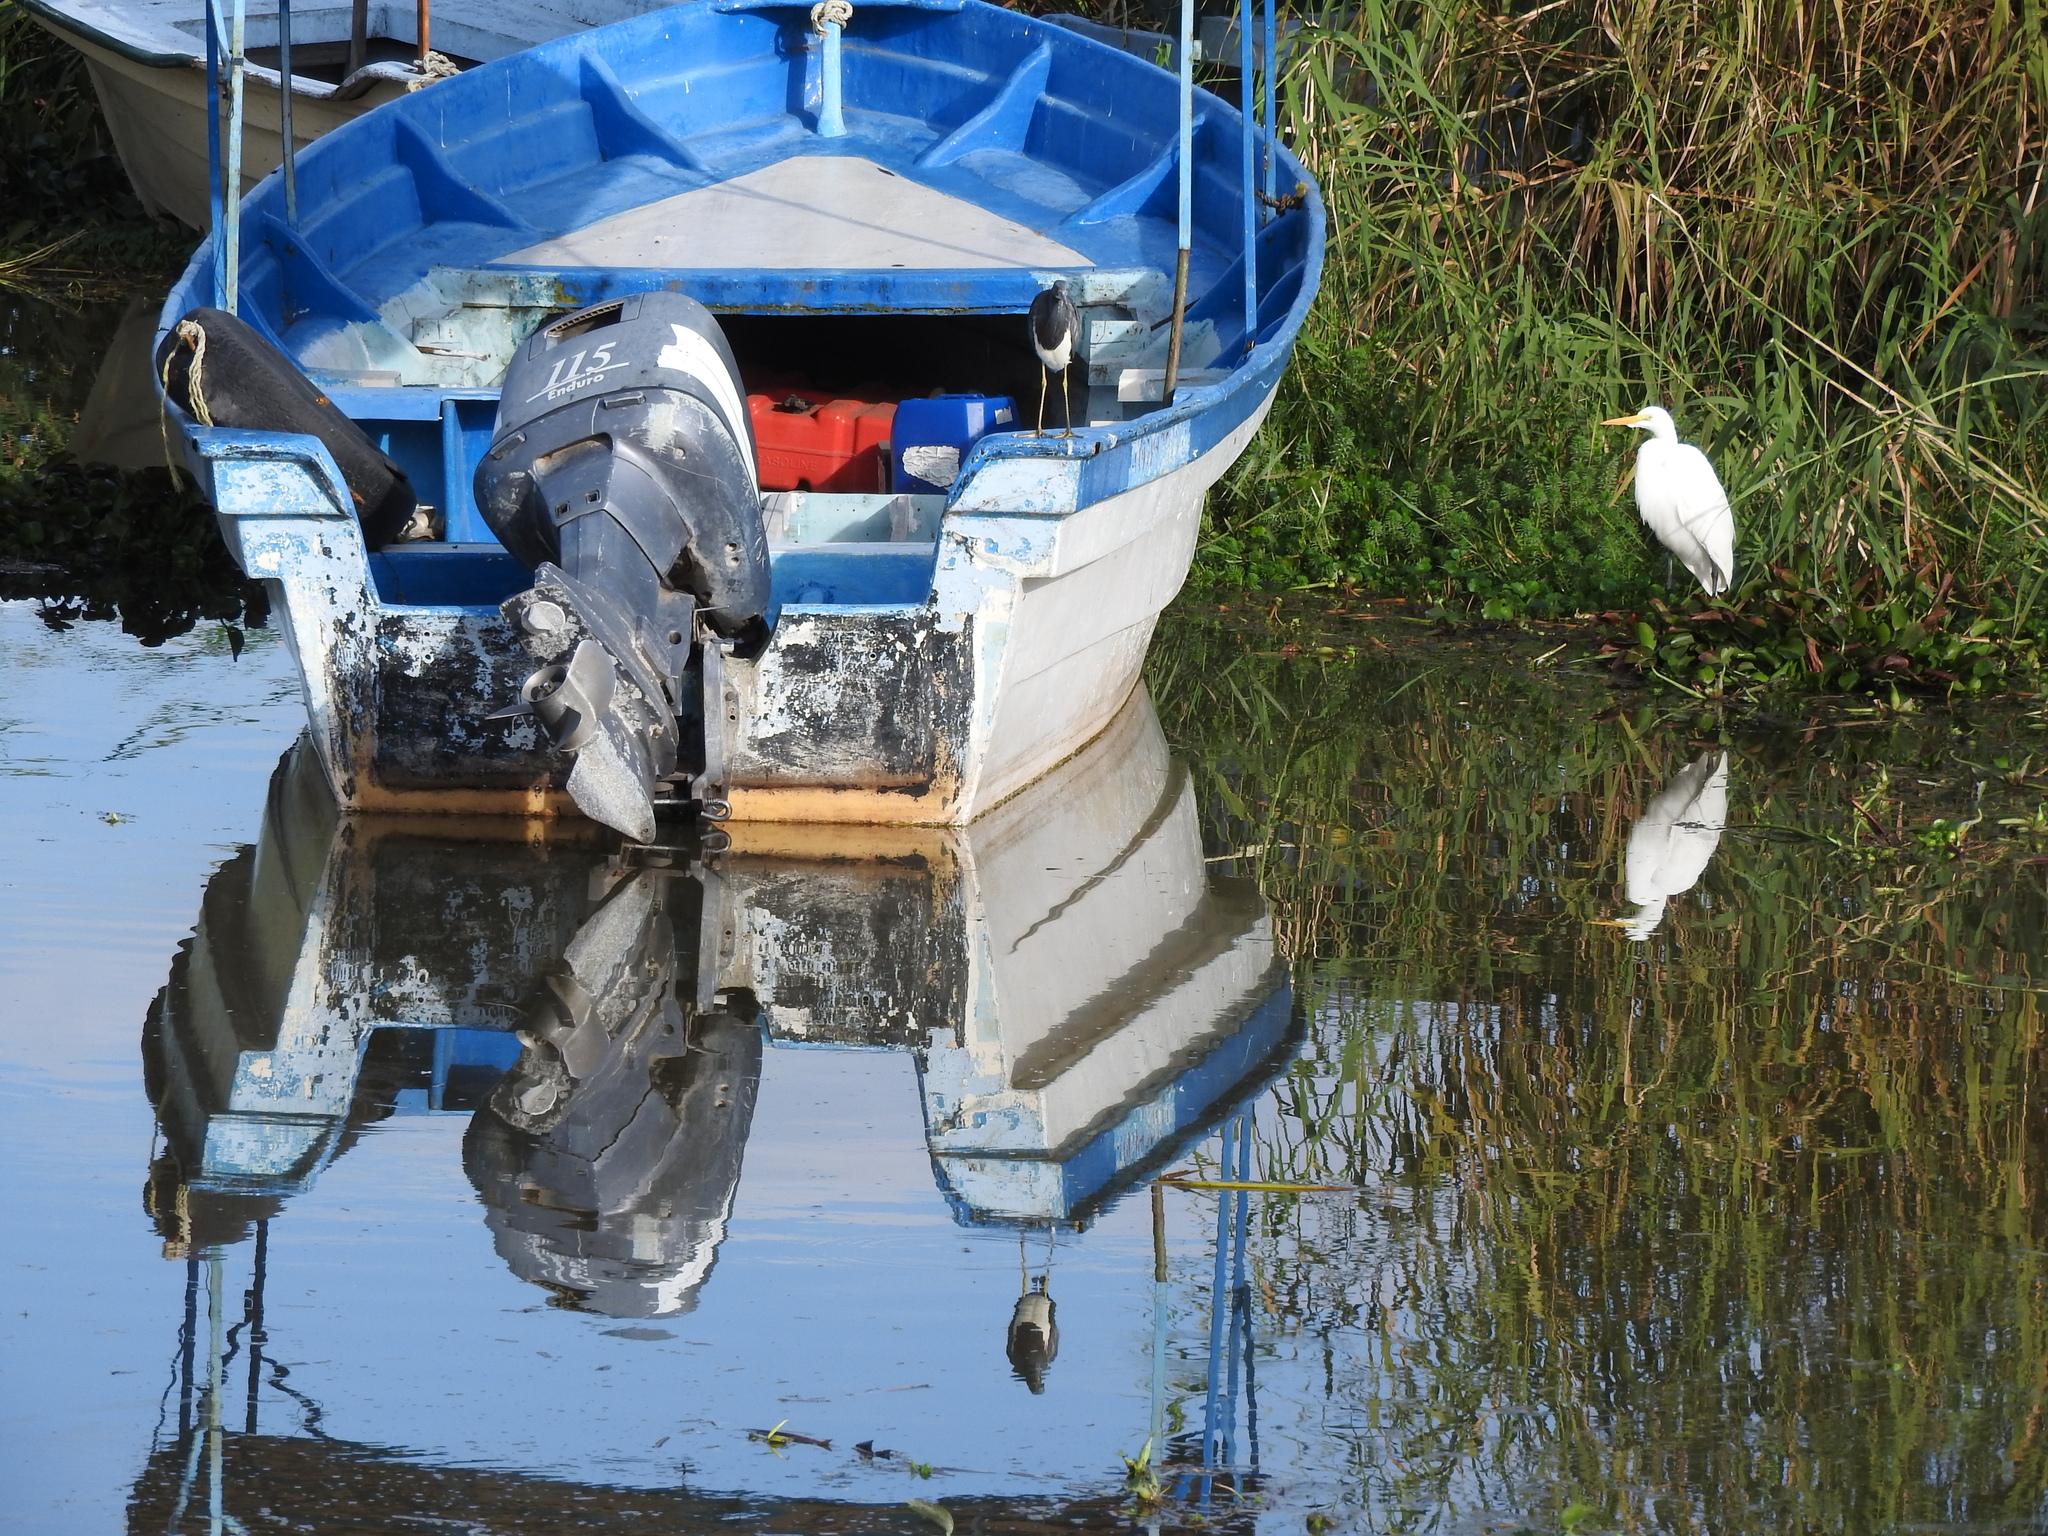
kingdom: Animalia
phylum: Chordata
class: Aves
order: Pelecaniformes
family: Ardeidae
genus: Ardea
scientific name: Ardea alba
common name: Great egret
